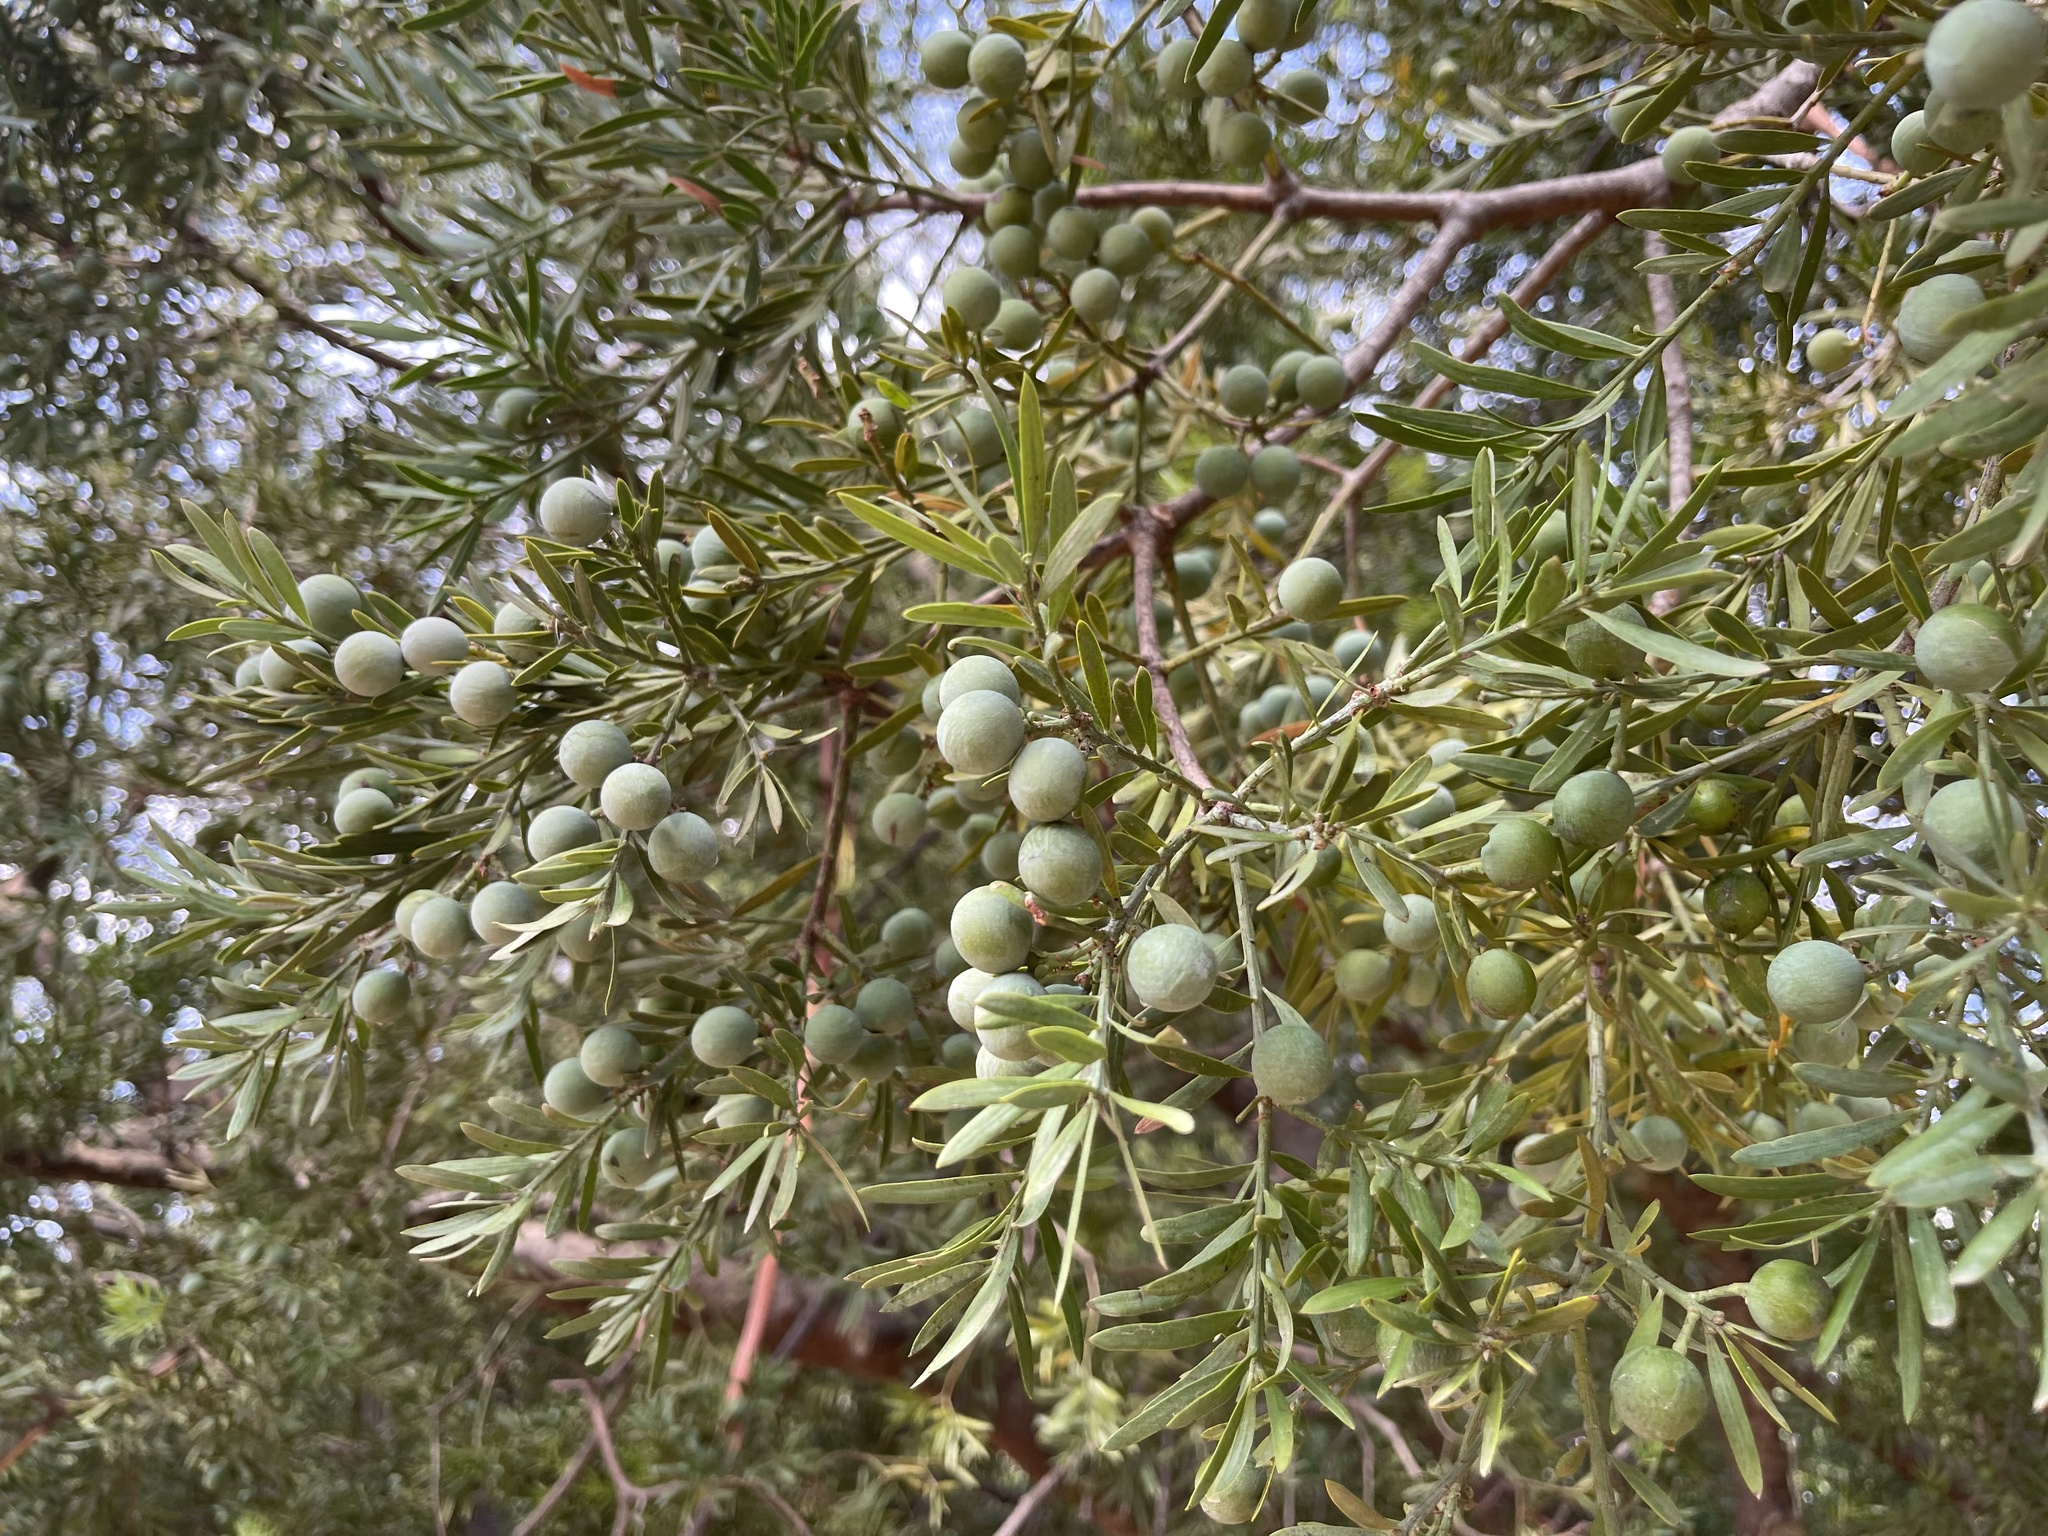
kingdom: Plantae
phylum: Tracheophyta
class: Pinopsida
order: Pinales
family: Podocarpaceae
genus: Afrocarpus
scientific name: Afrocarpus falcatus
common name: Bastard yellowwood
